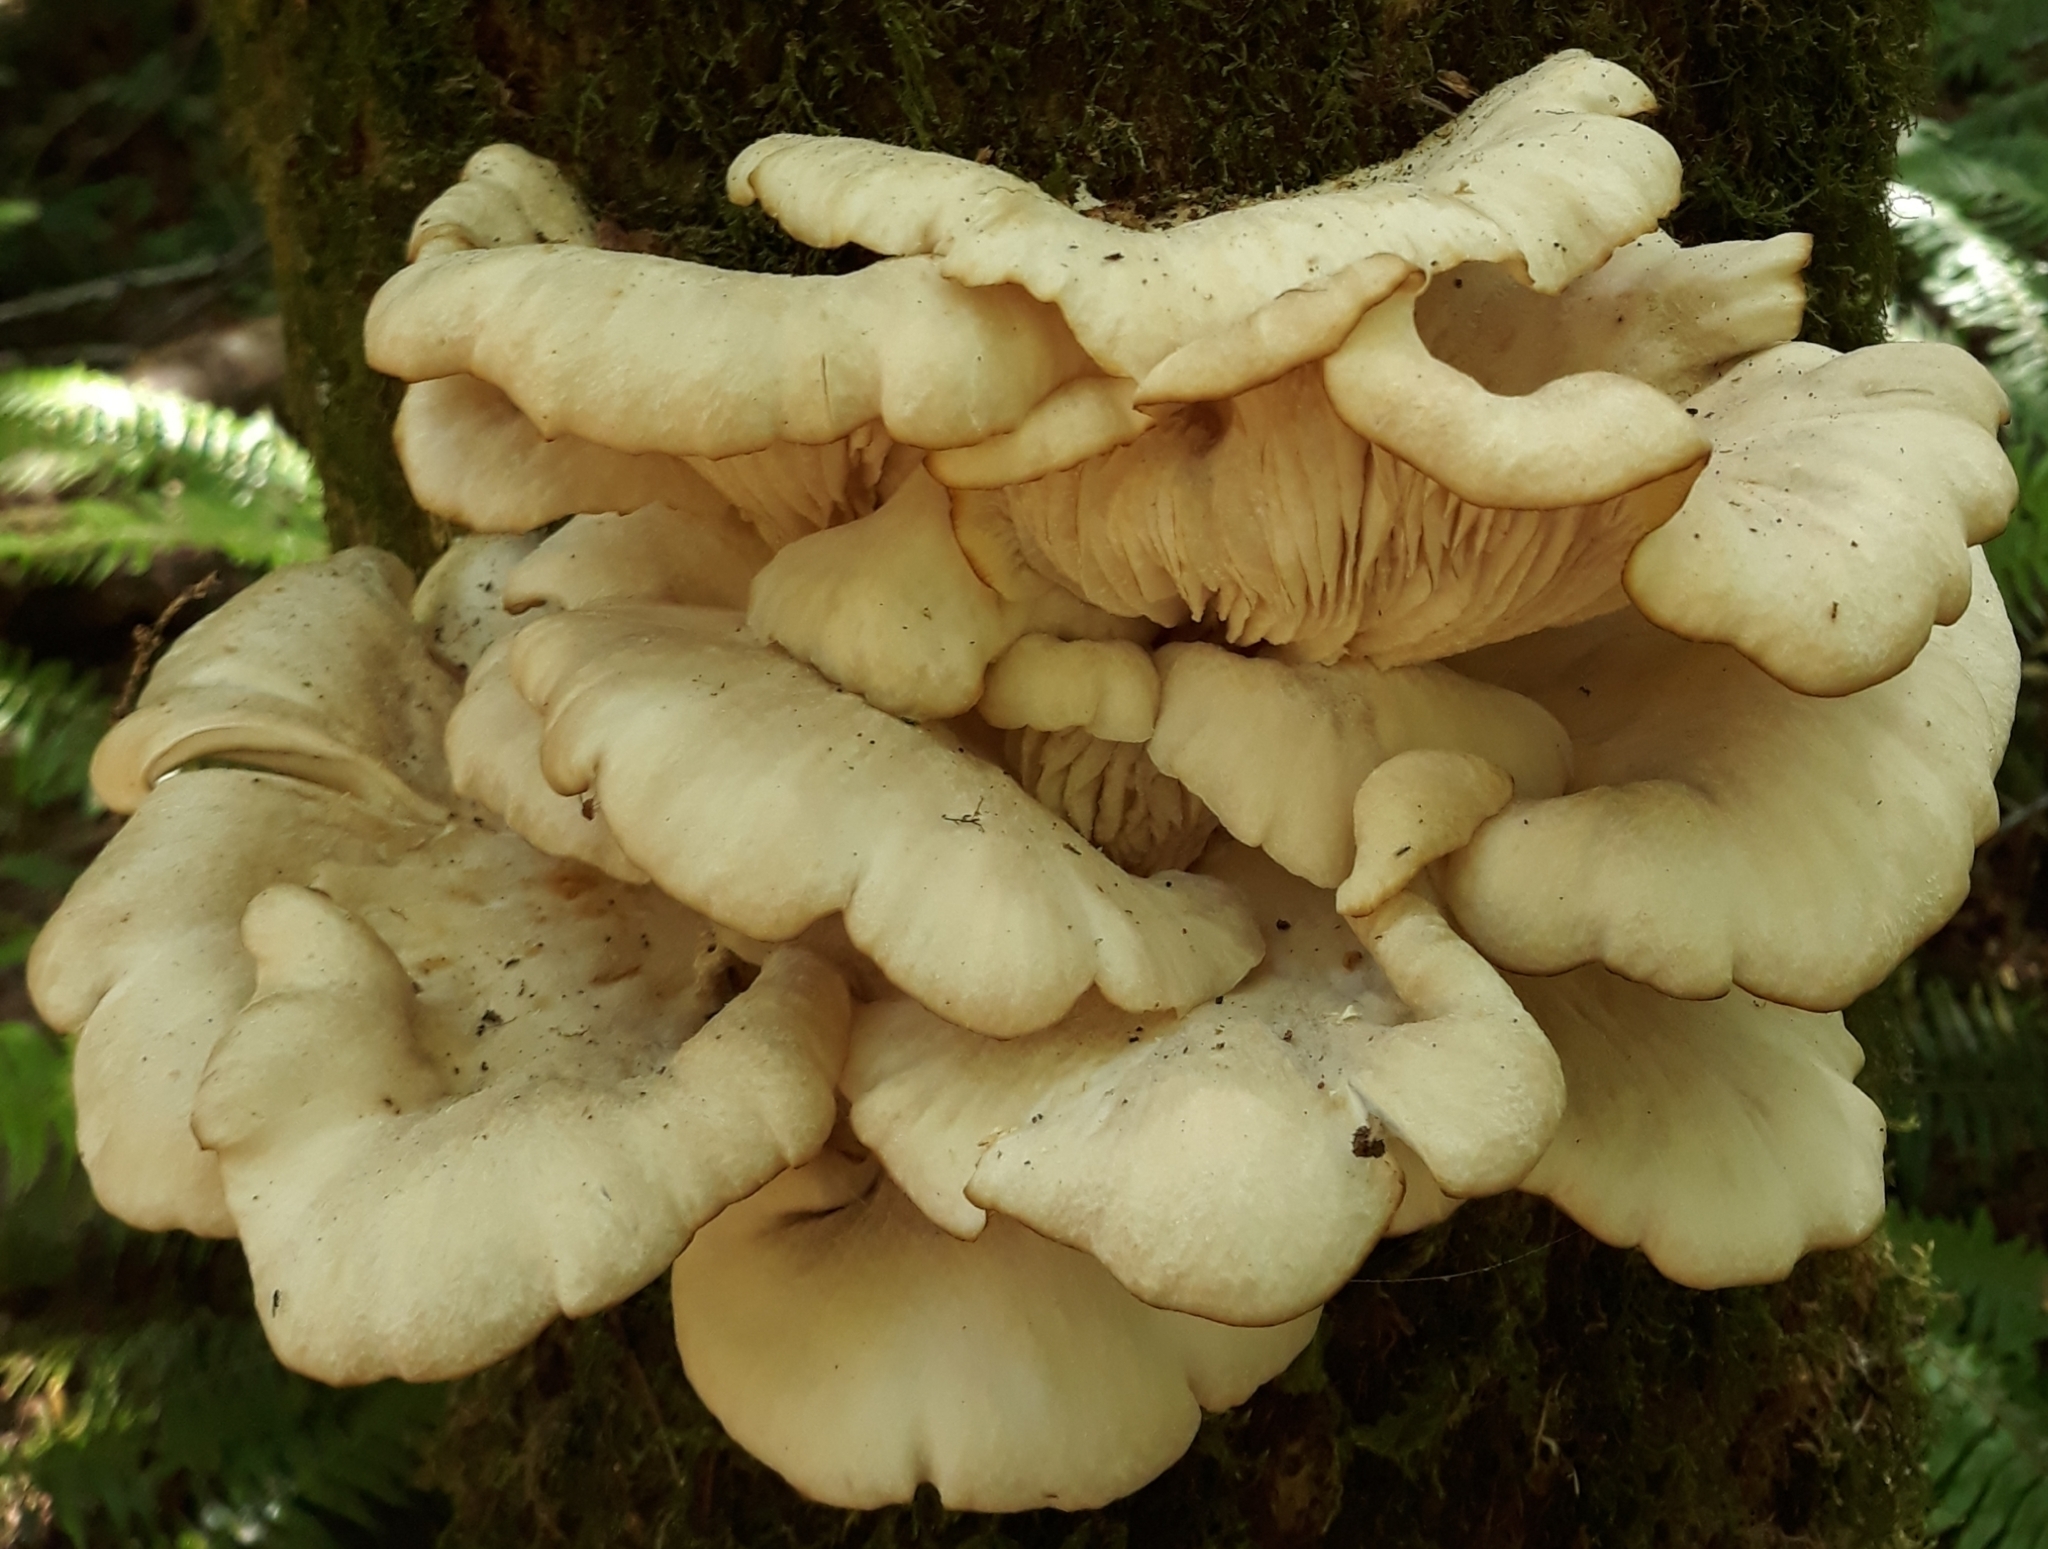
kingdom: Fungi
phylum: Basidiomycota
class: Agaricomycetes
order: Agaricales
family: Pleurotaceae
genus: Pleurotus
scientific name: Pleurotus pulmonarius
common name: Pale oyster
